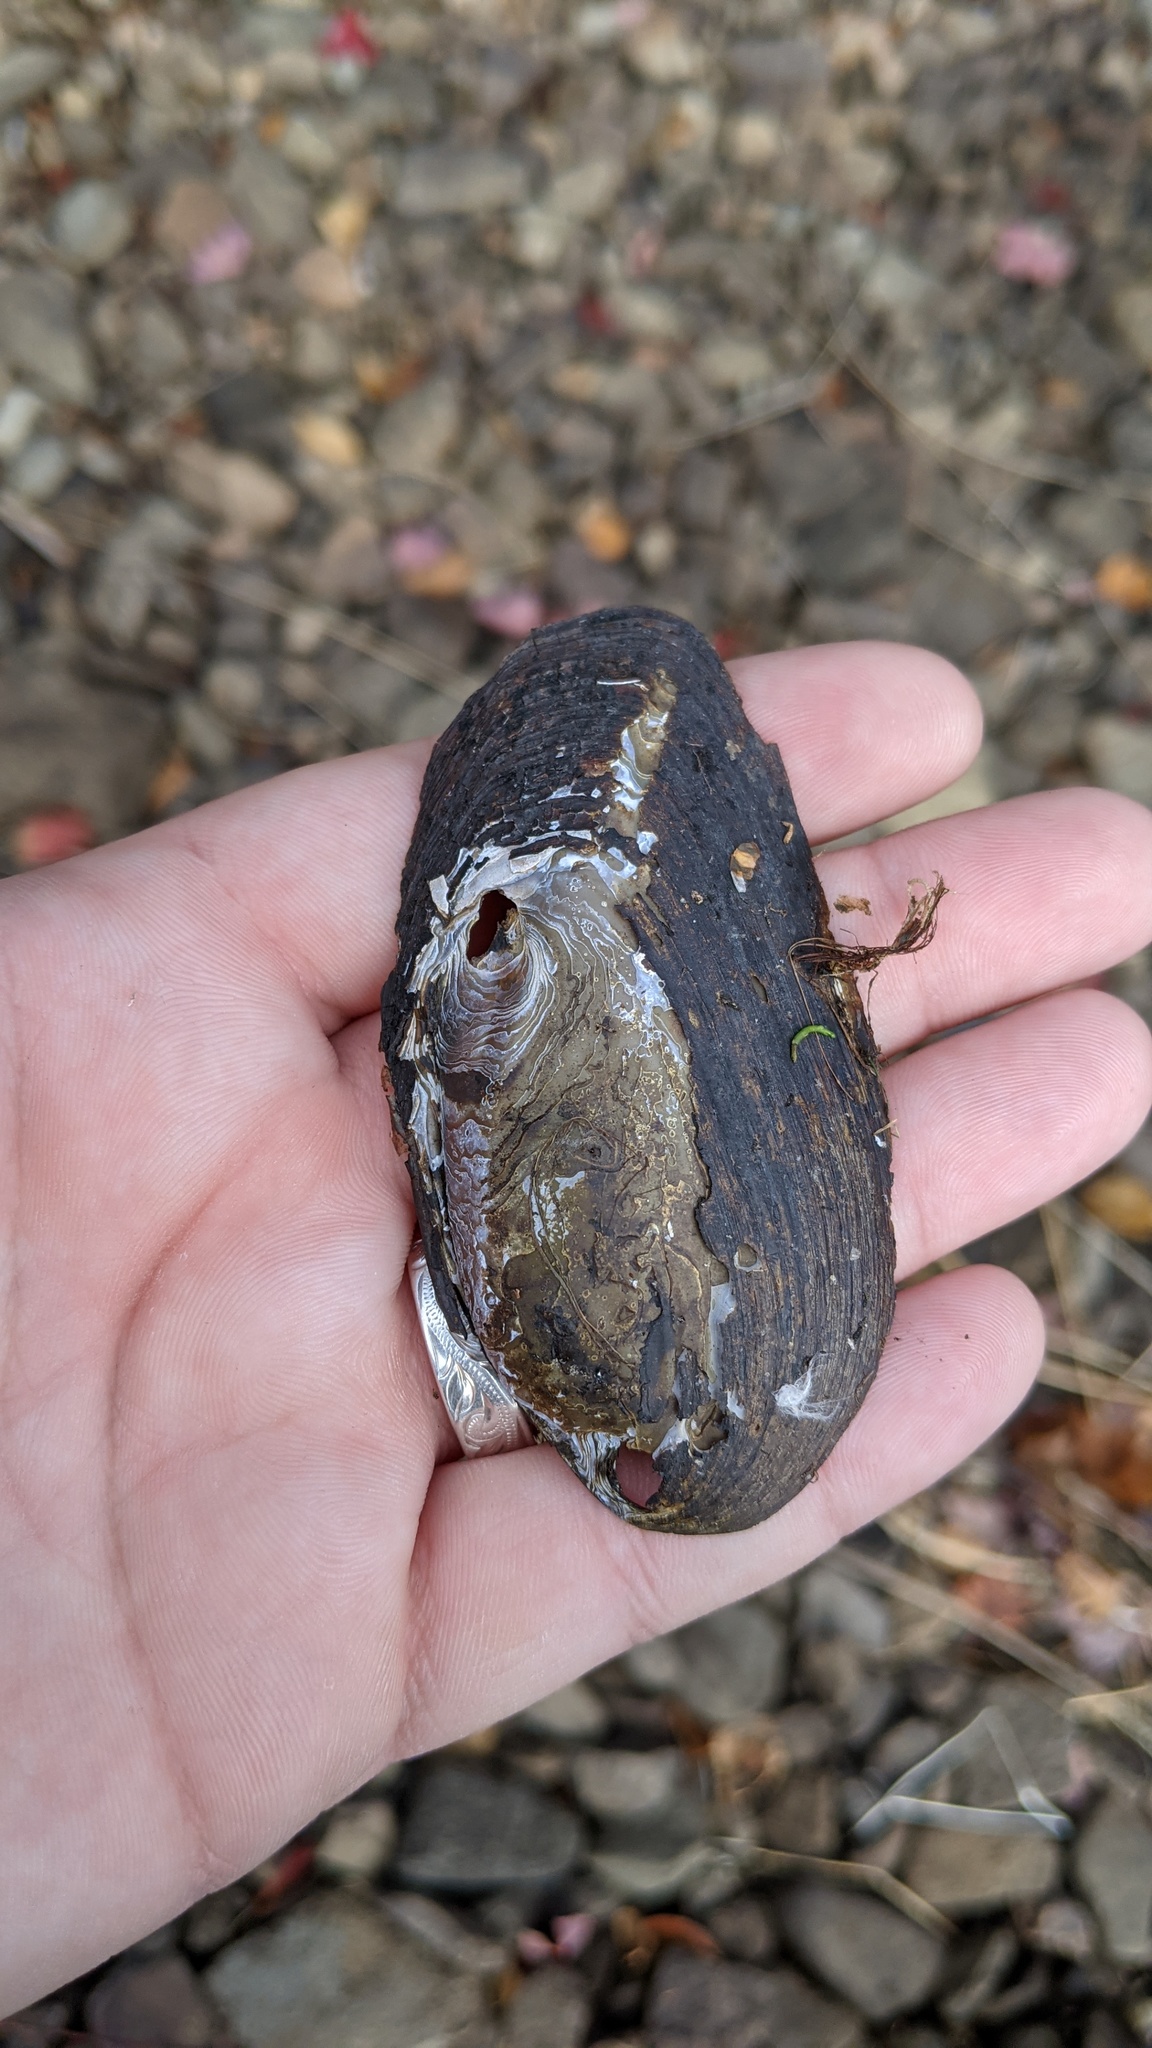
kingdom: Animalia
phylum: Mollusca
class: Bivalvia
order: Unionida
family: Unionidae
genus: Elliptio
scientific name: Elliptio complanata
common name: Eastern elliptio
